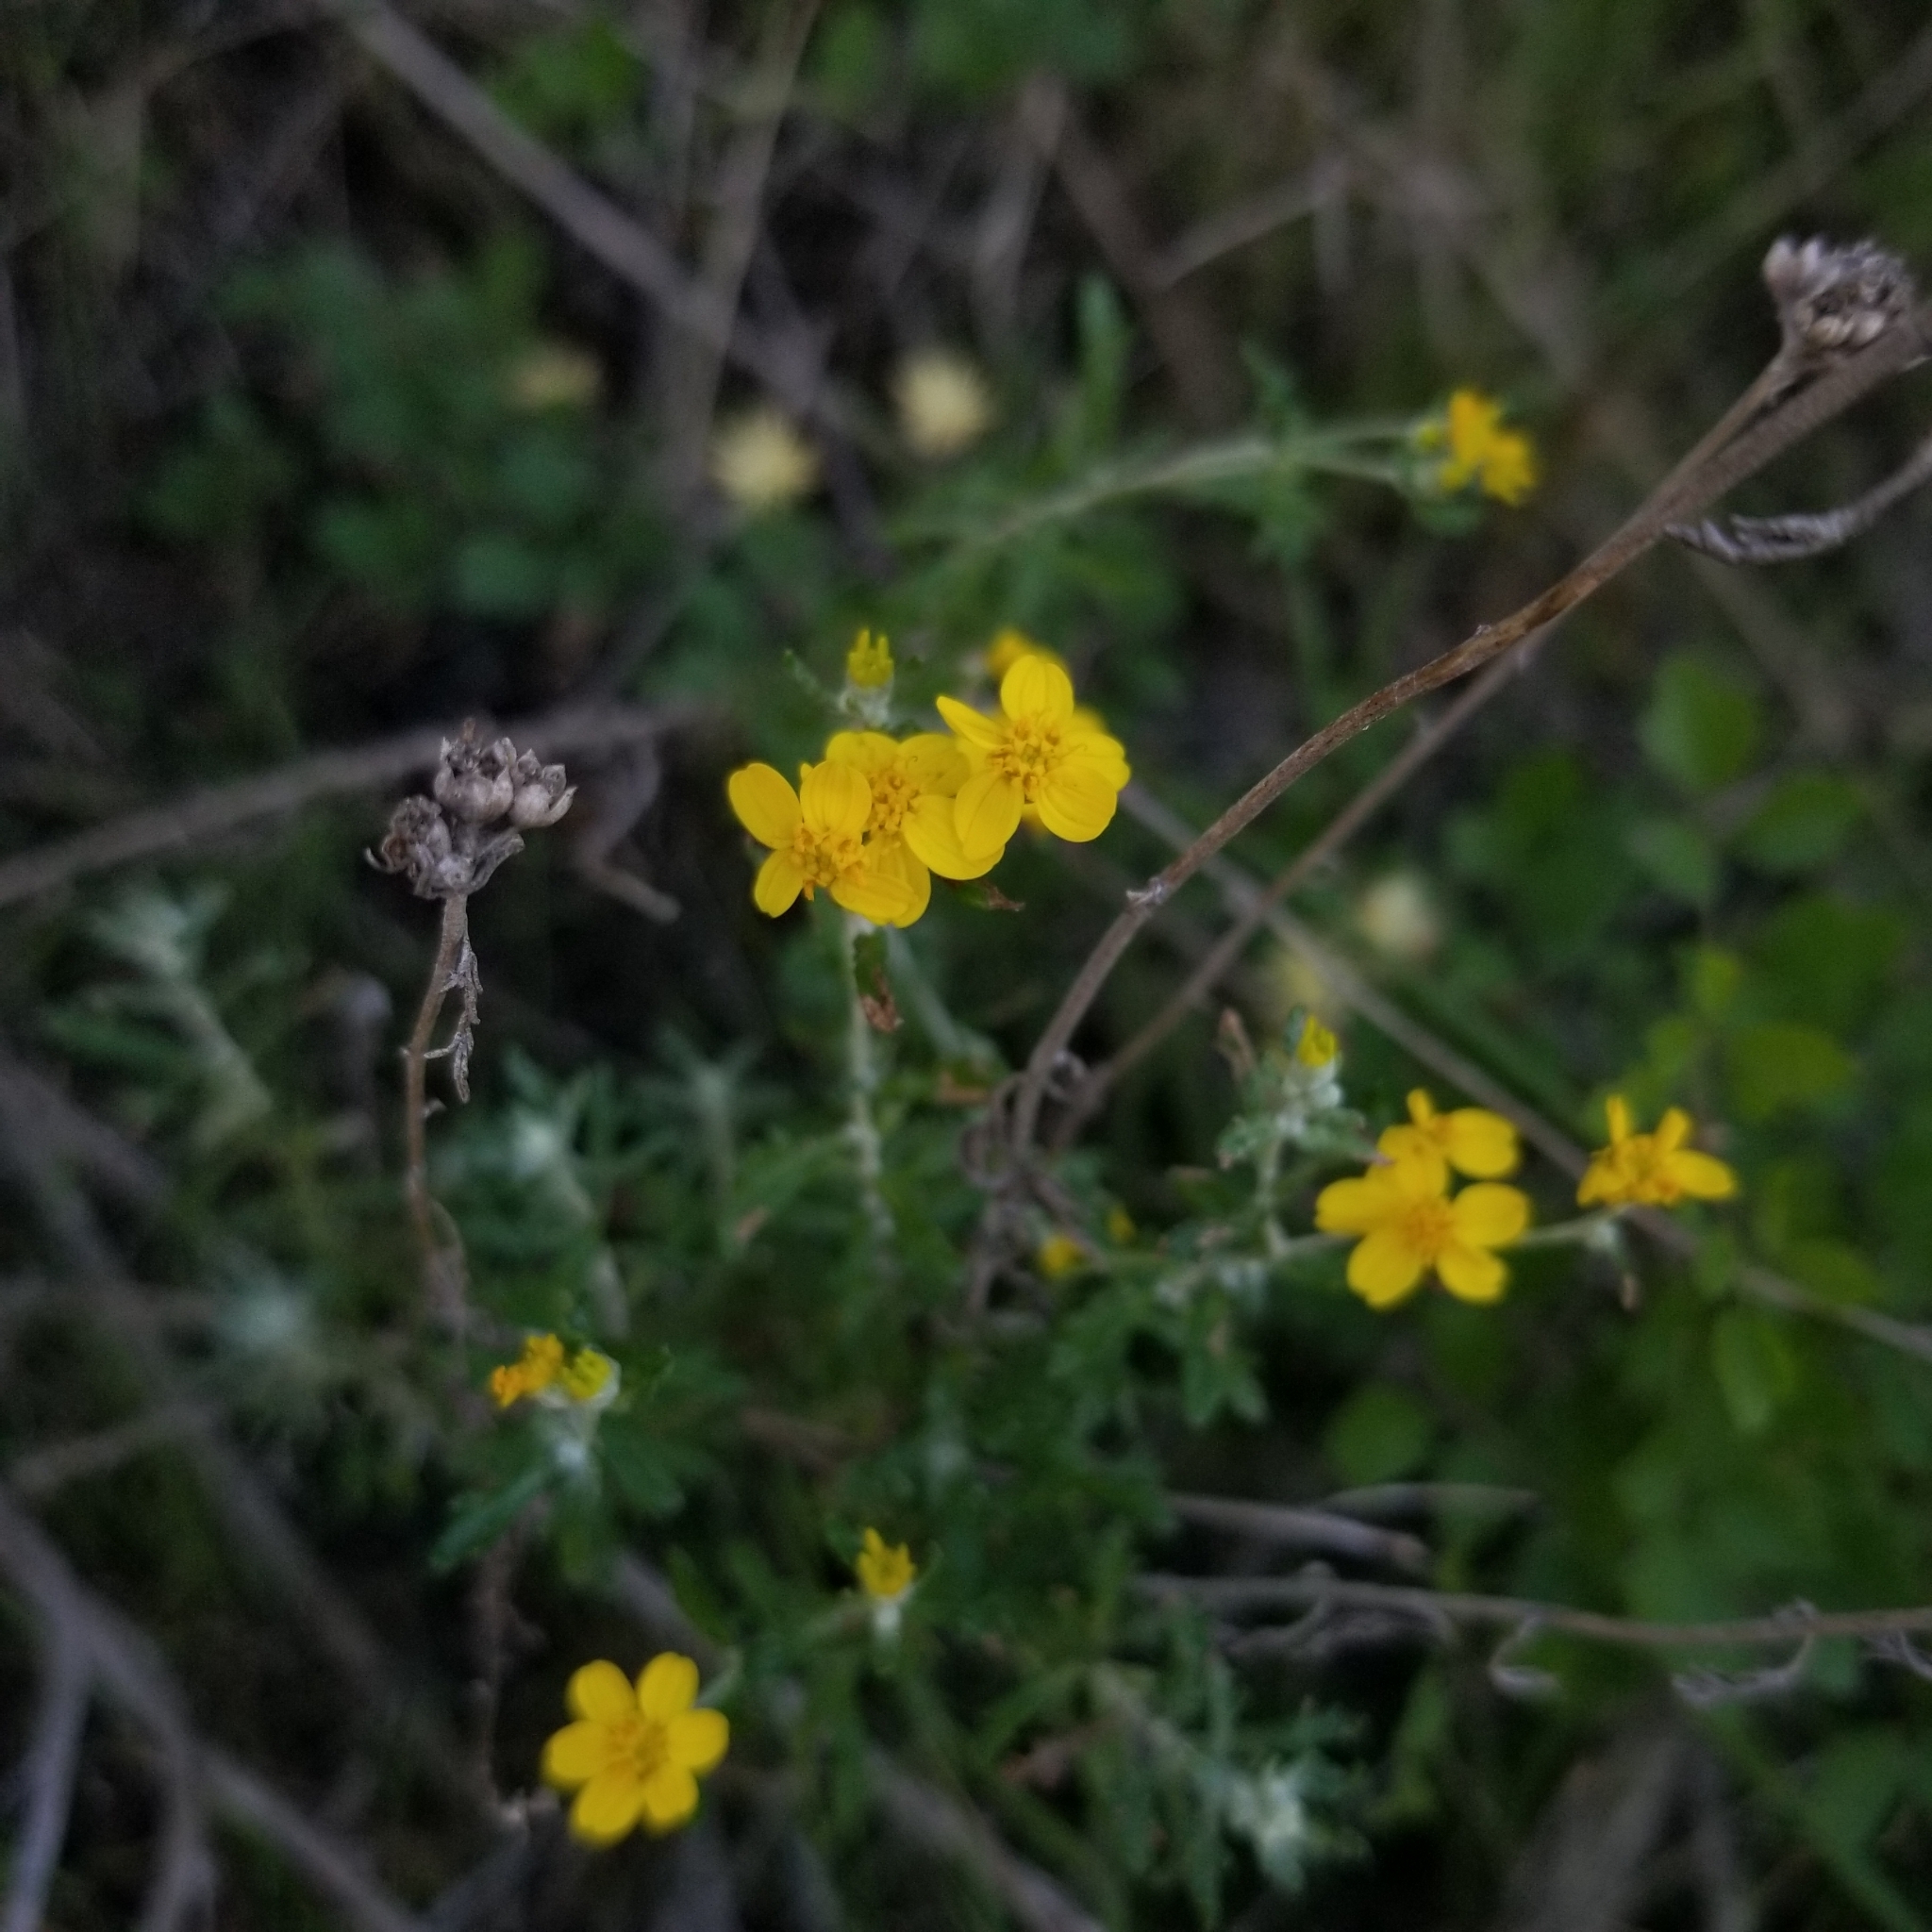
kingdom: Plantae
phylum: Tracheophyta
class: Magnoliopsida
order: Asterales
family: Asteraceae
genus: Eriophyllum
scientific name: Eriophyllum confertiflorum
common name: Golden-yarrow
